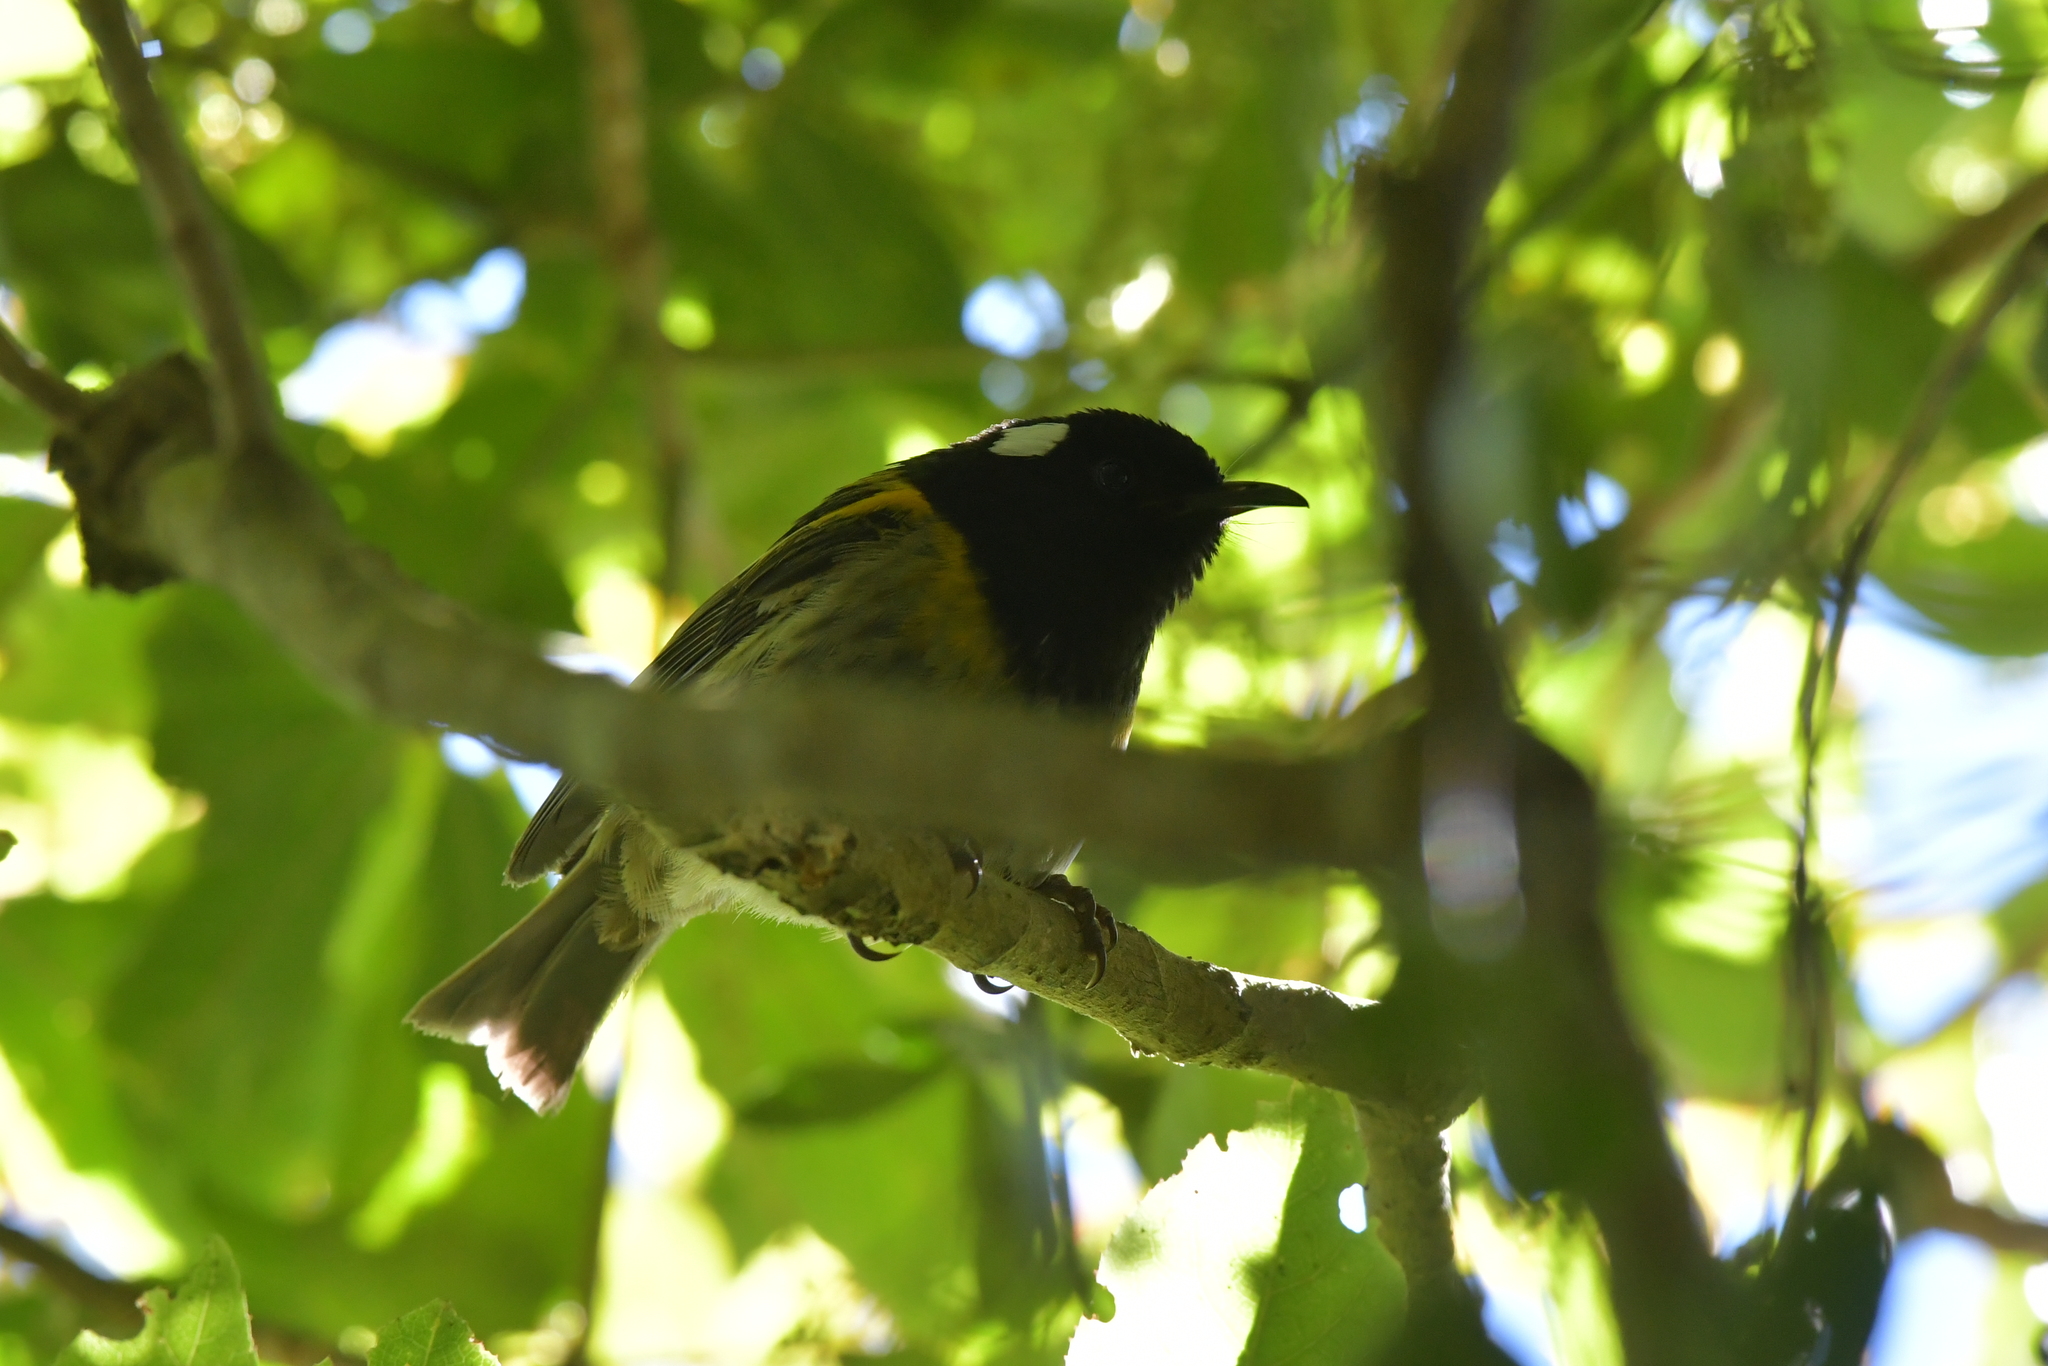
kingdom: Animalia
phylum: Chordata
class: Aves
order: Passeriformes
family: Notiomystidae
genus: Notiomystis
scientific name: Notiomystis cincta
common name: Stitchbird
